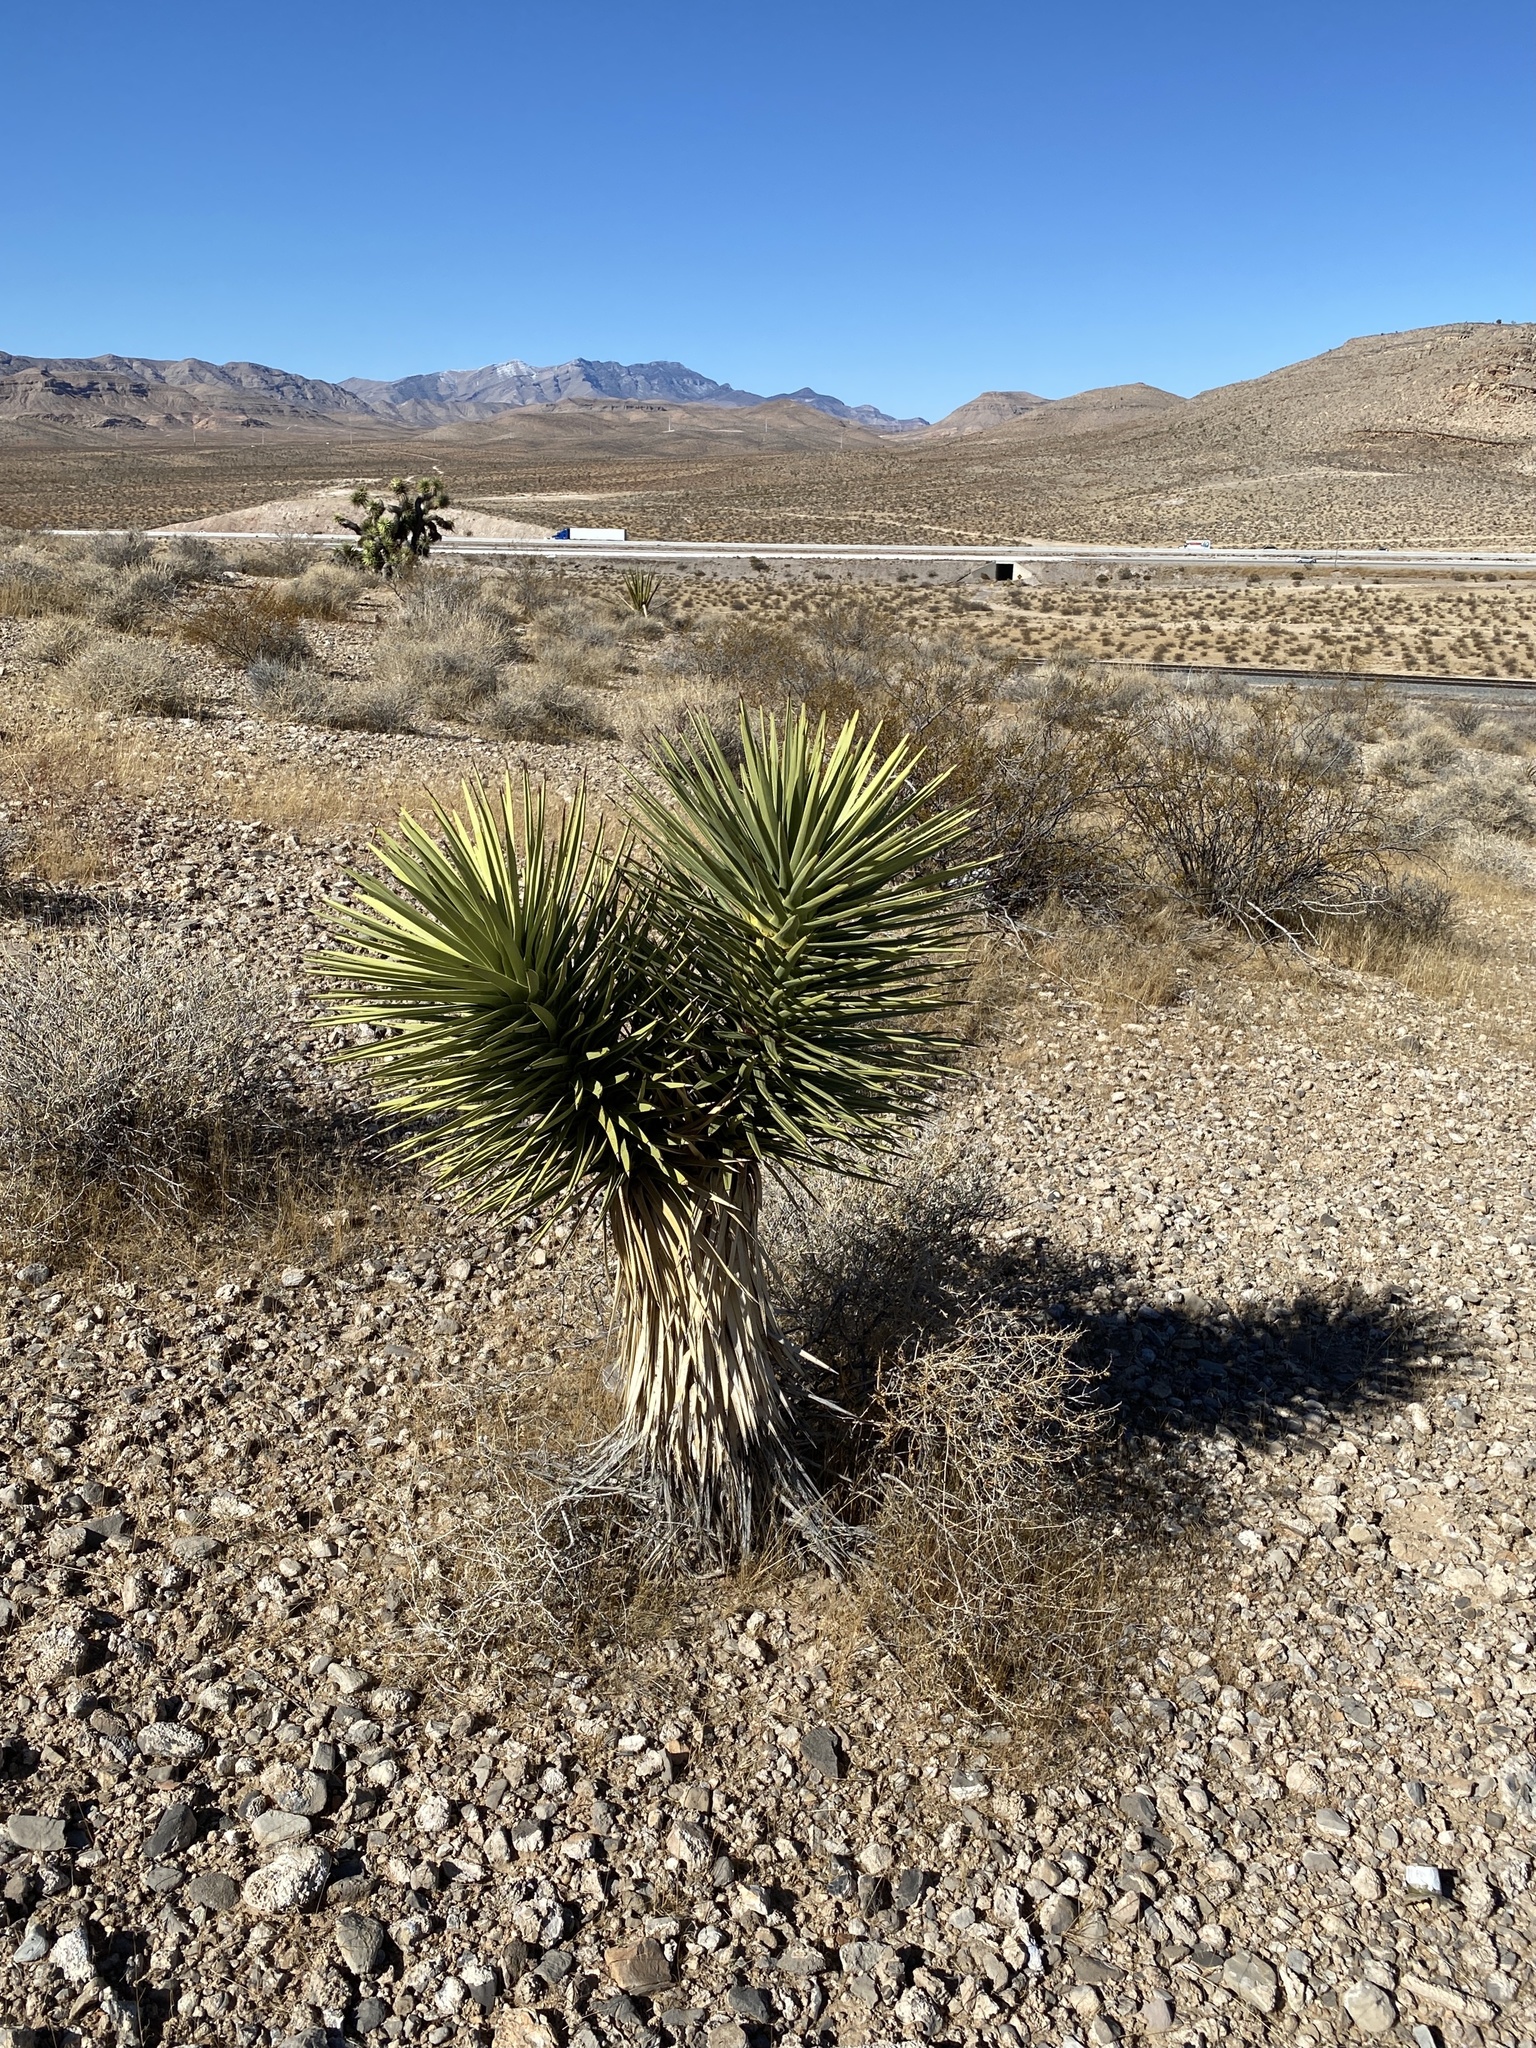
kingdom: Plantae
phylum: Tracheophyta
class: Liliopsida
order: Asparagales
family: Asparagaceae
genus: Yucca
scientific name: Yucca brevifolia
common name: Joshua tree
